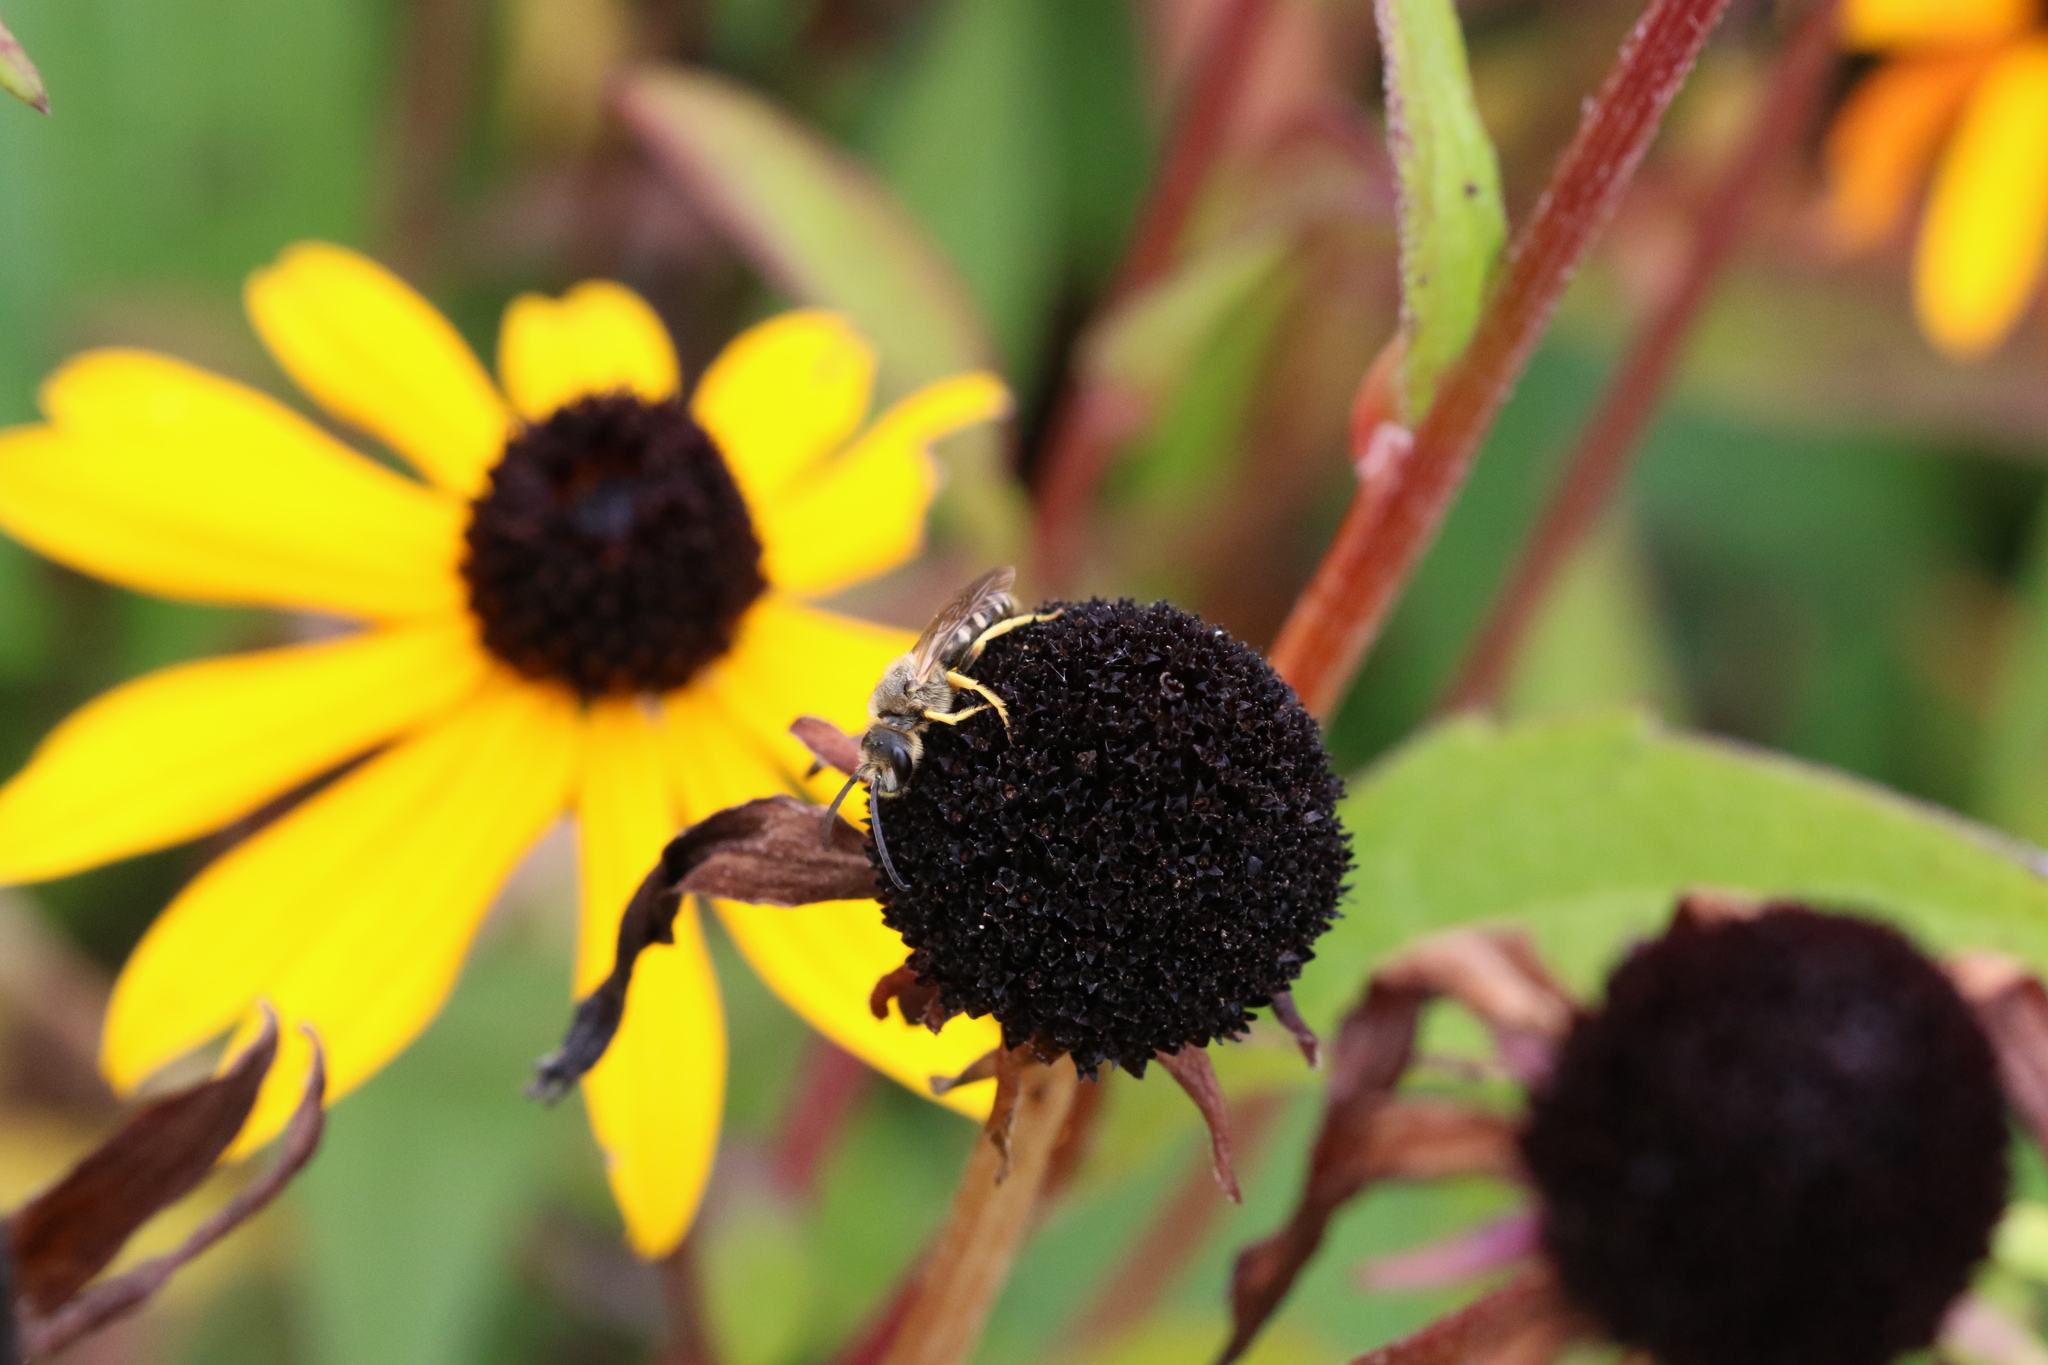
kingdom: Animalia
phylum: Arthropoda
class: Insecta
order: Hymenoptera
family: Halictidae
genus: Halictus
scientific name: Halictus scabiosae
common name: Great banded furrow bee
